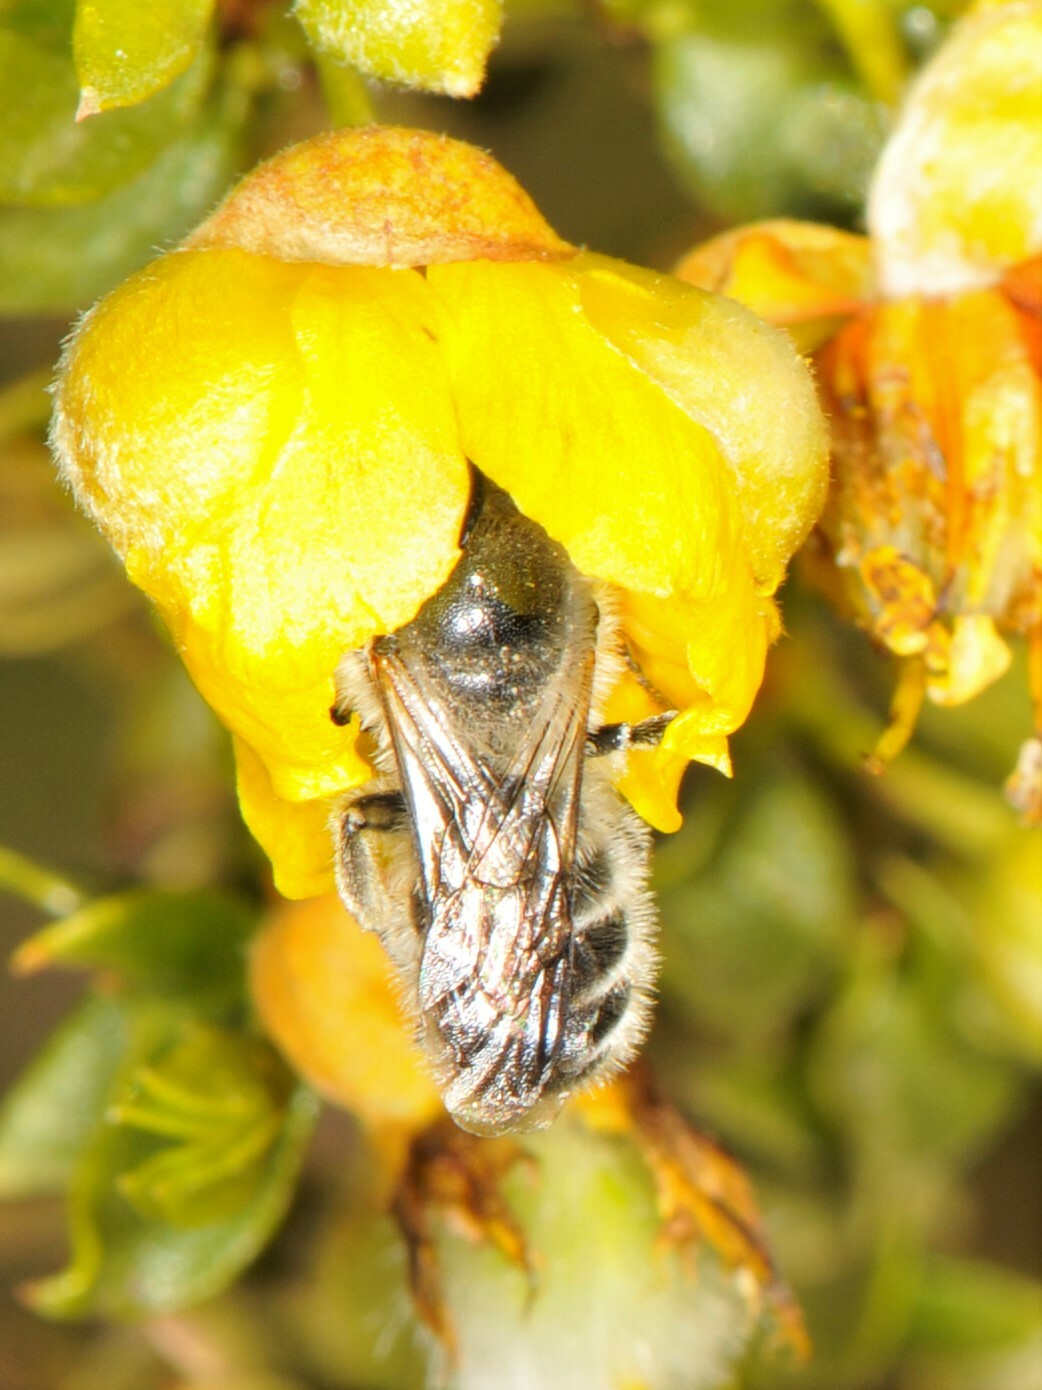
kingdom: Animalia
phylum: Arthropoda
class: Insecta
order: Hymenoptera
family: Megachilidae
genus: Hoplitis
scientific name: Hoplitis biscutellae
